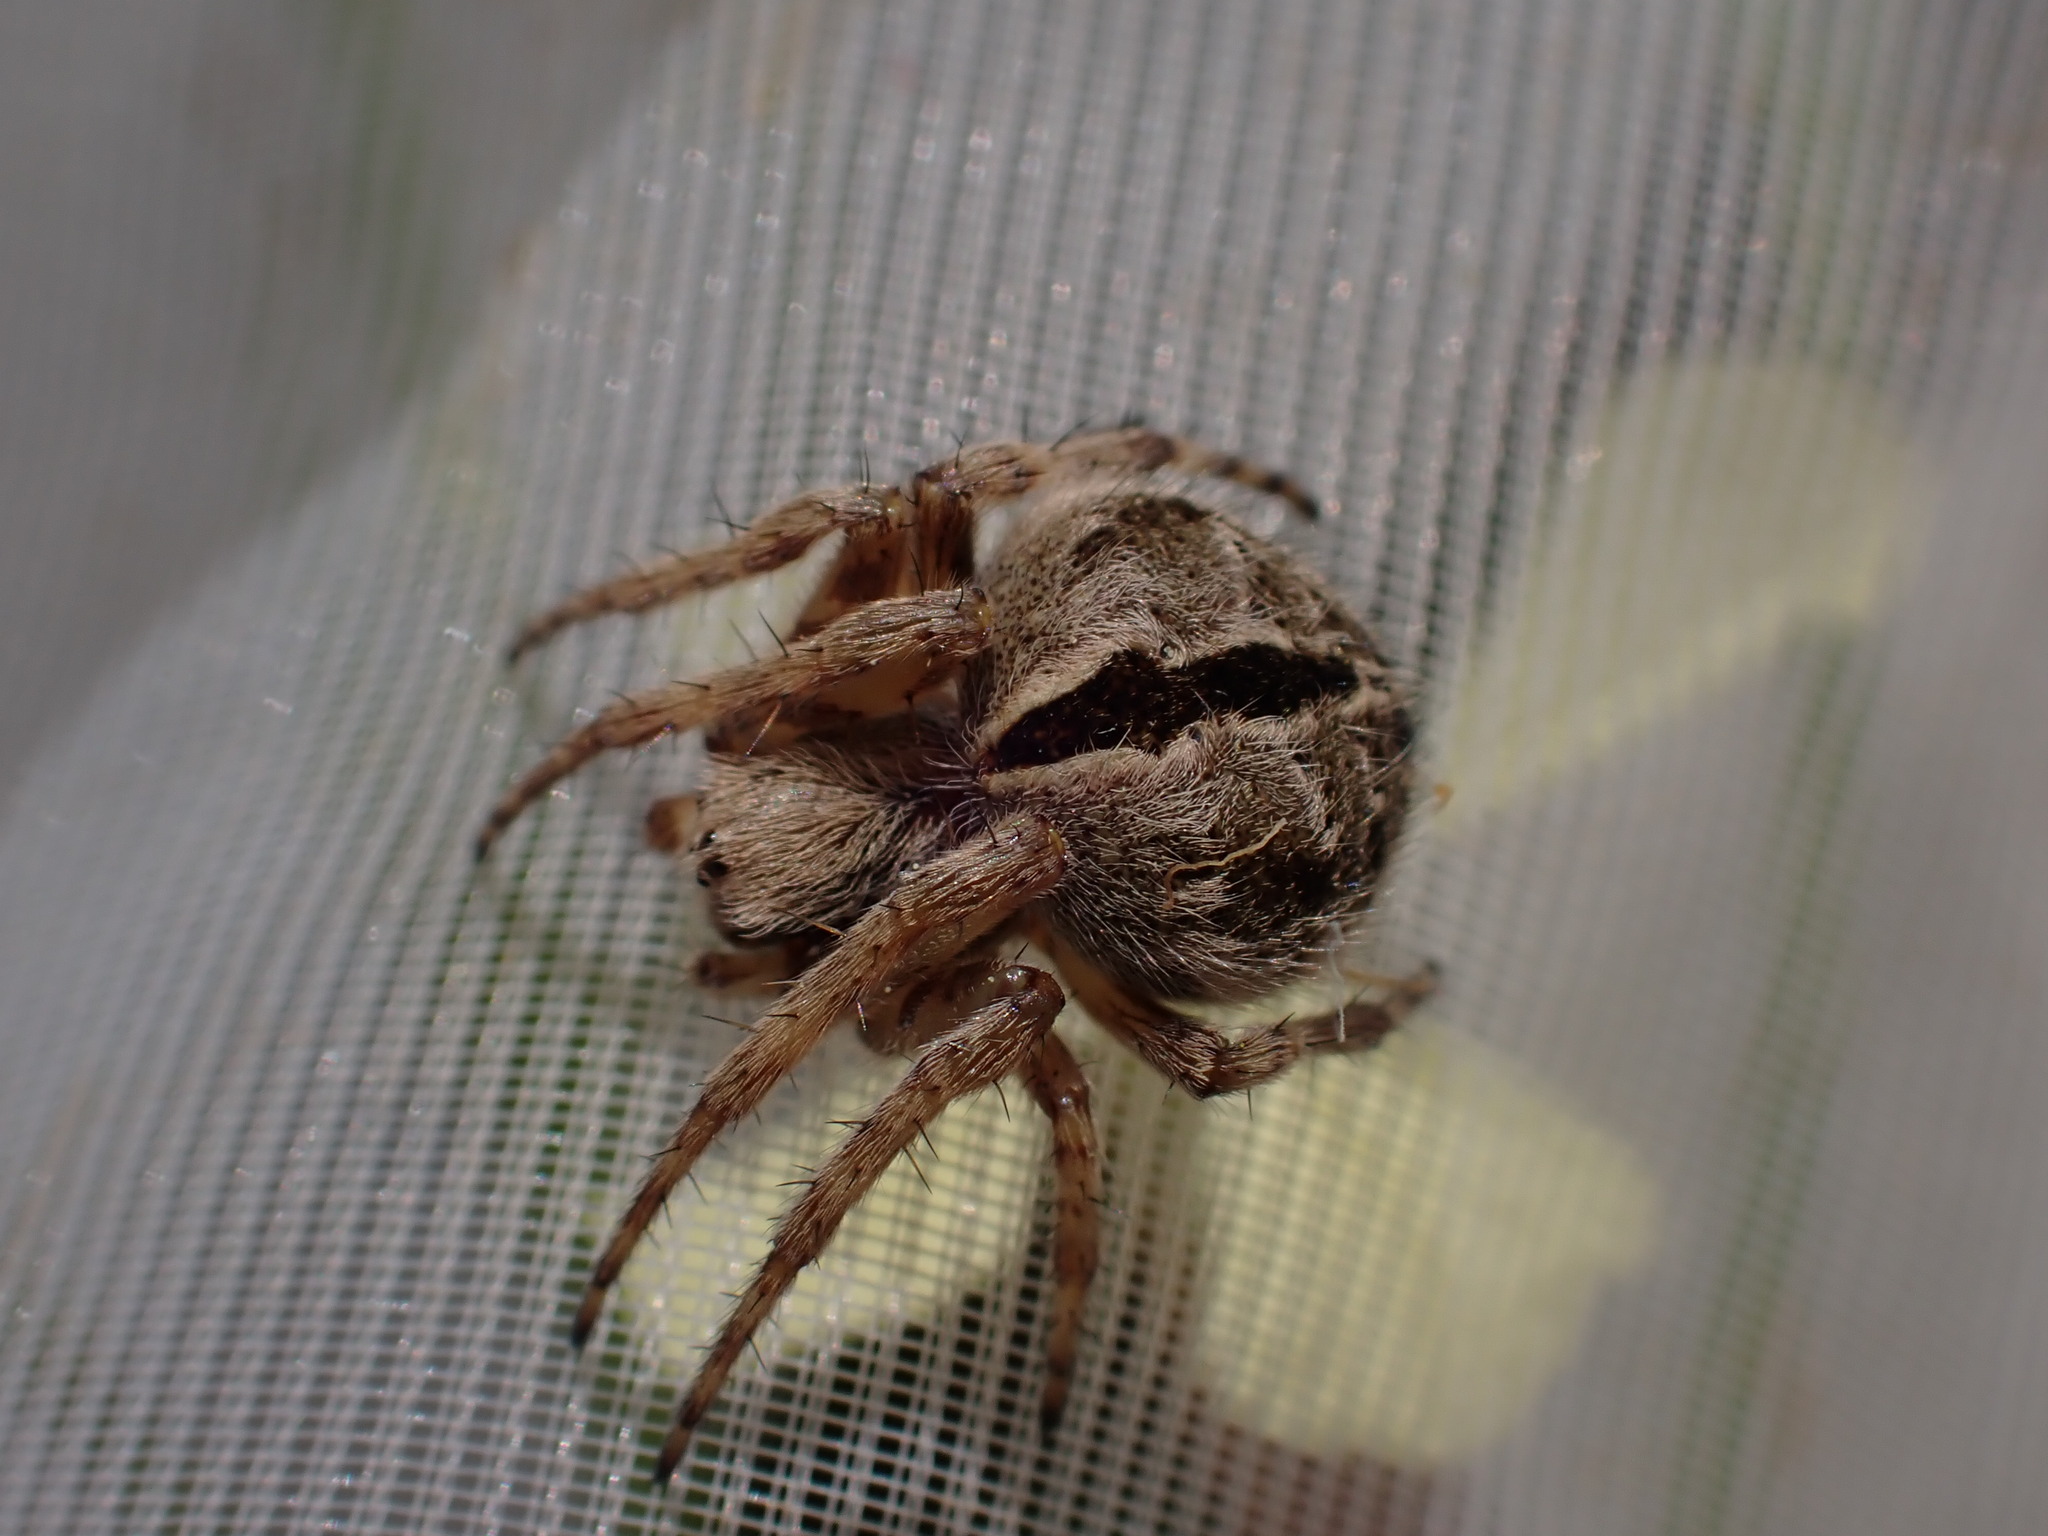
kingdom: Animalia
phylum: Arthropoda
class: Arachnida
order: Araneae
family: Araneidae
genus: Agalenatea
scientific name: Agalenatea redii
